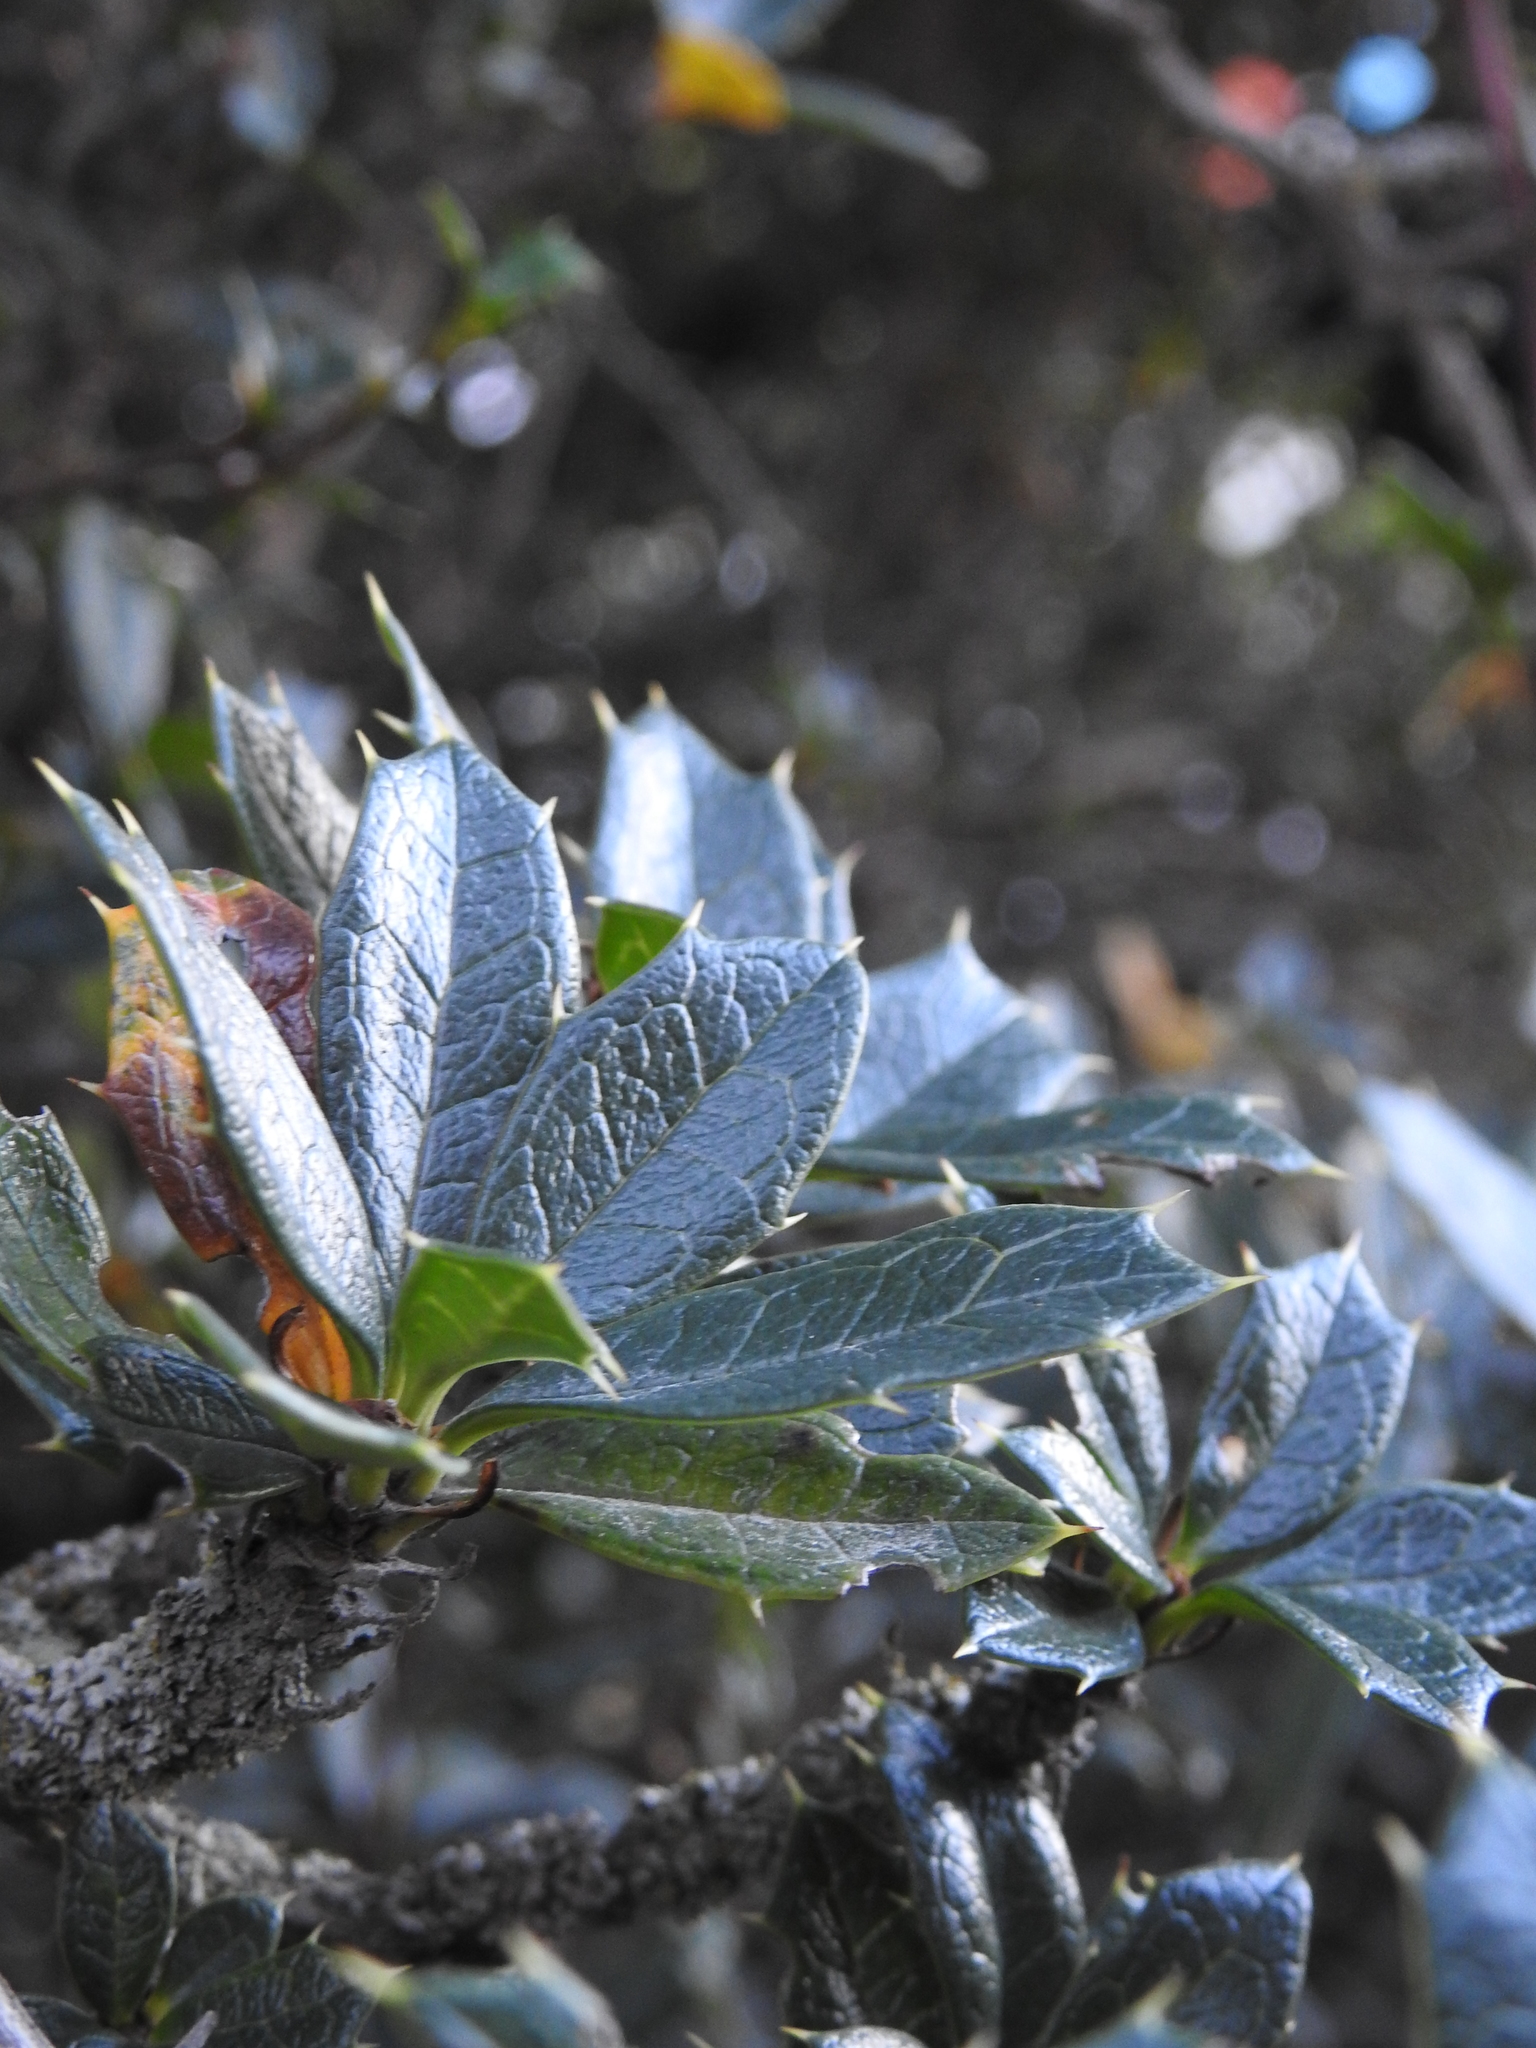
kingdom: Plantae
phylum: Tracheophyta
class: Magnoliopsida
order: Ranunculales
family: Berberidaceae
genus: Berberis
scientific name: Berberis ilicifolia
